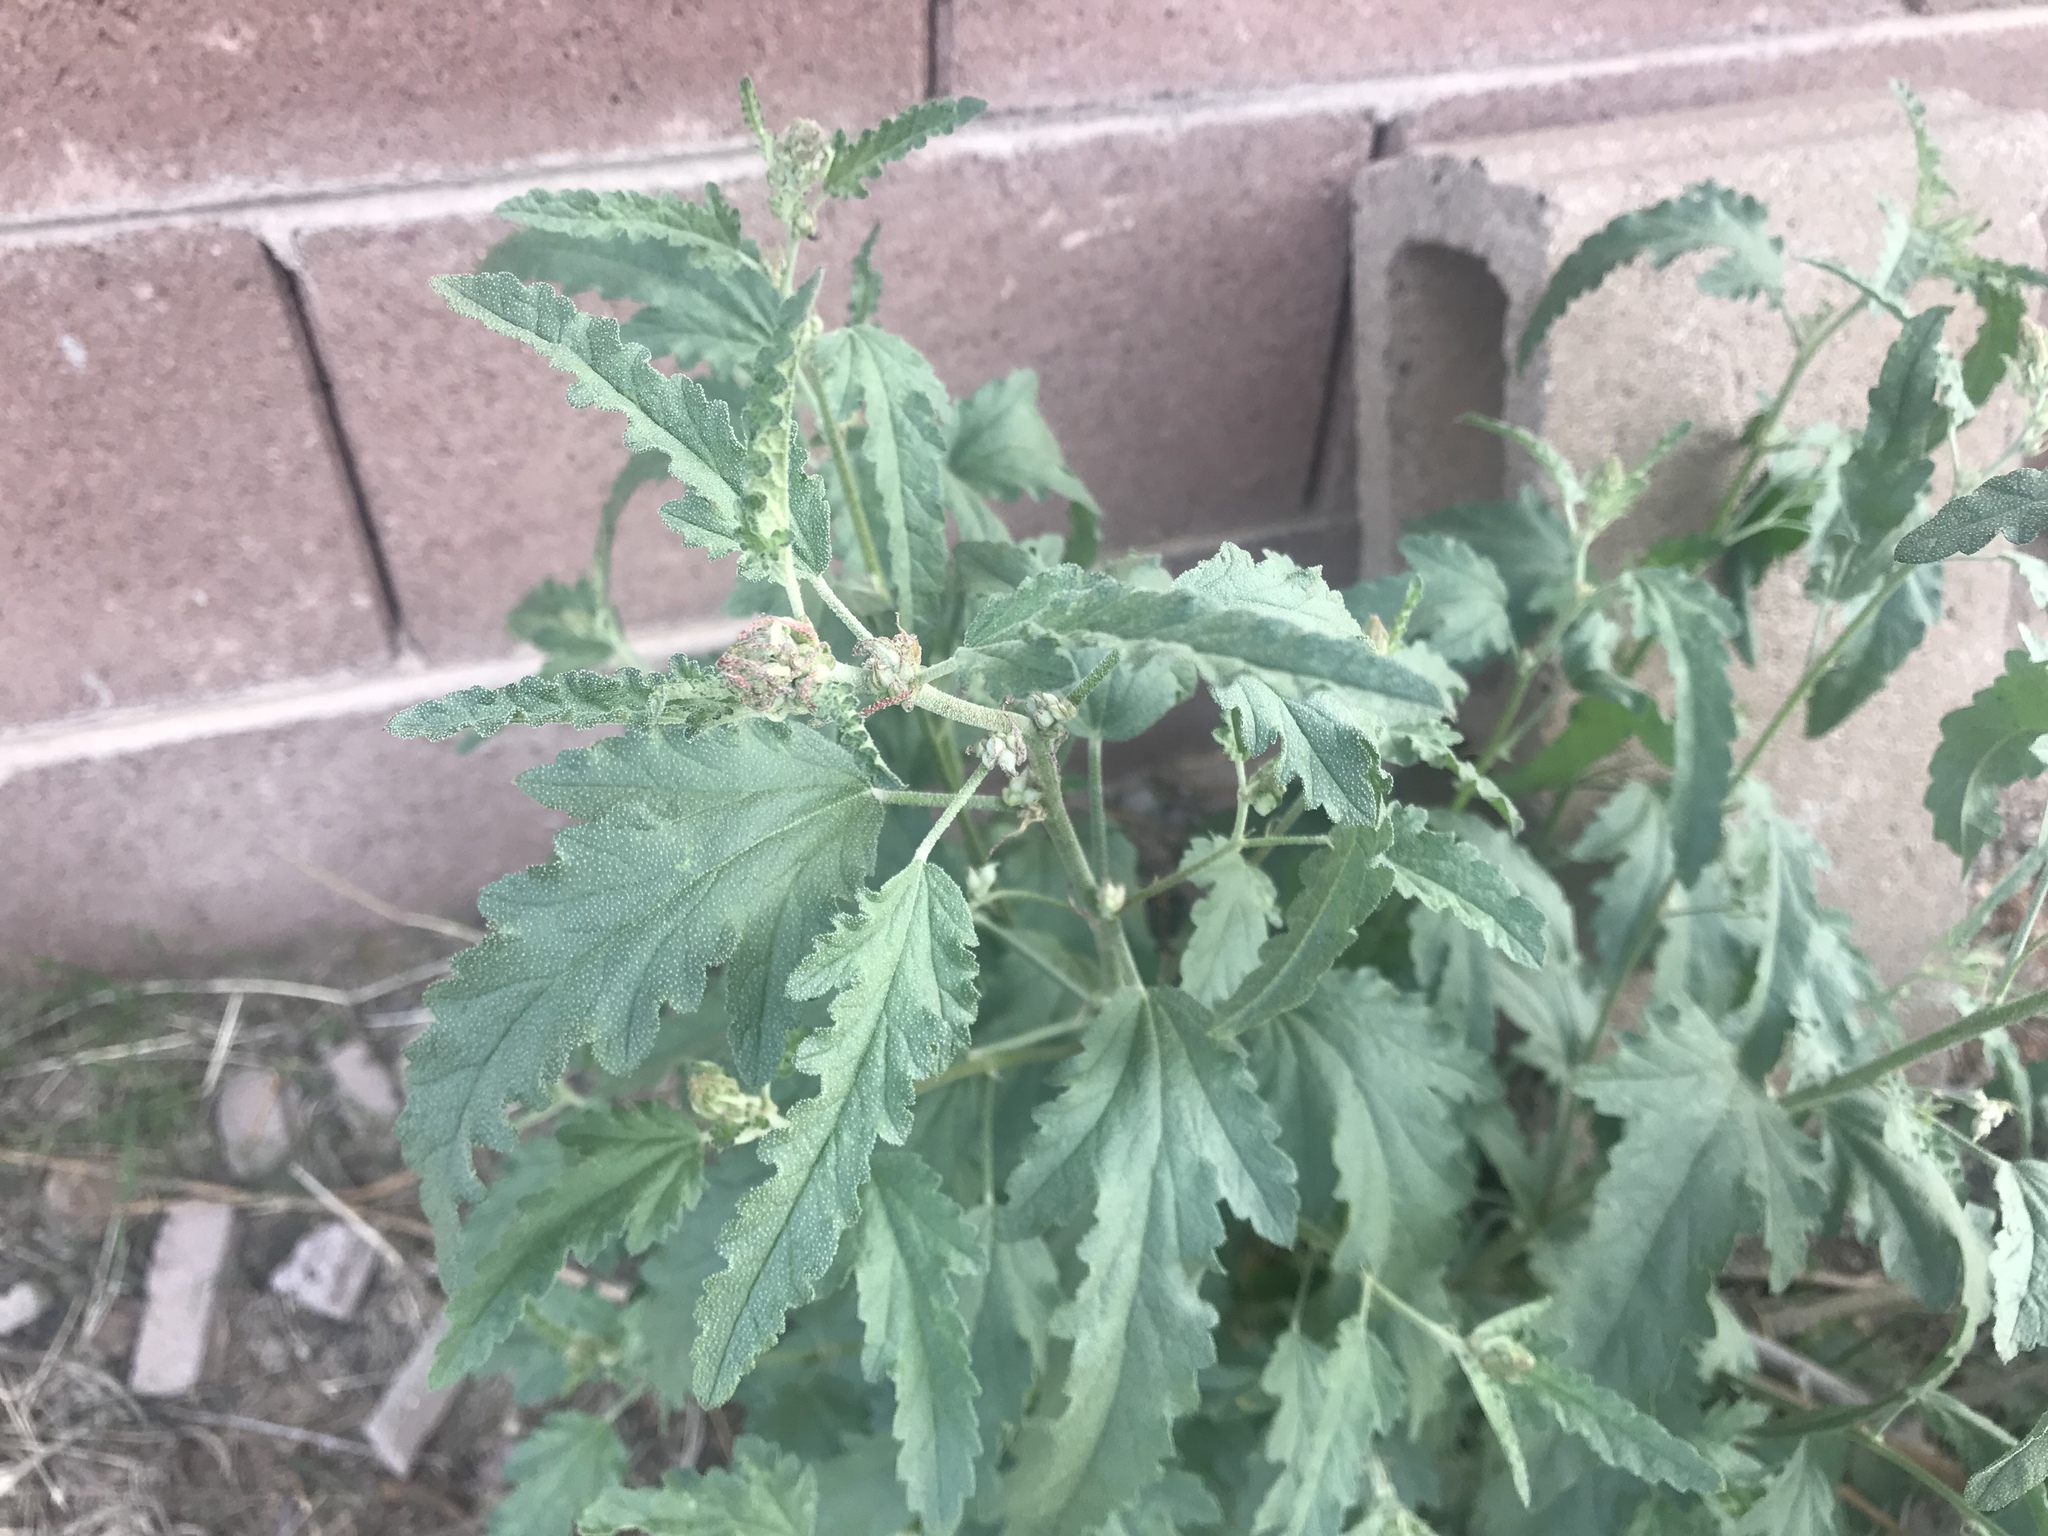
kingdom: Plantae
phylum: Tracheophyta
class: Magnoliopsida
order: Malvales
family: Malvaceae
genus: Sphaeralcea
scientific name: Sphaeralcea angustifolia
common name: Copper globe-mallow
